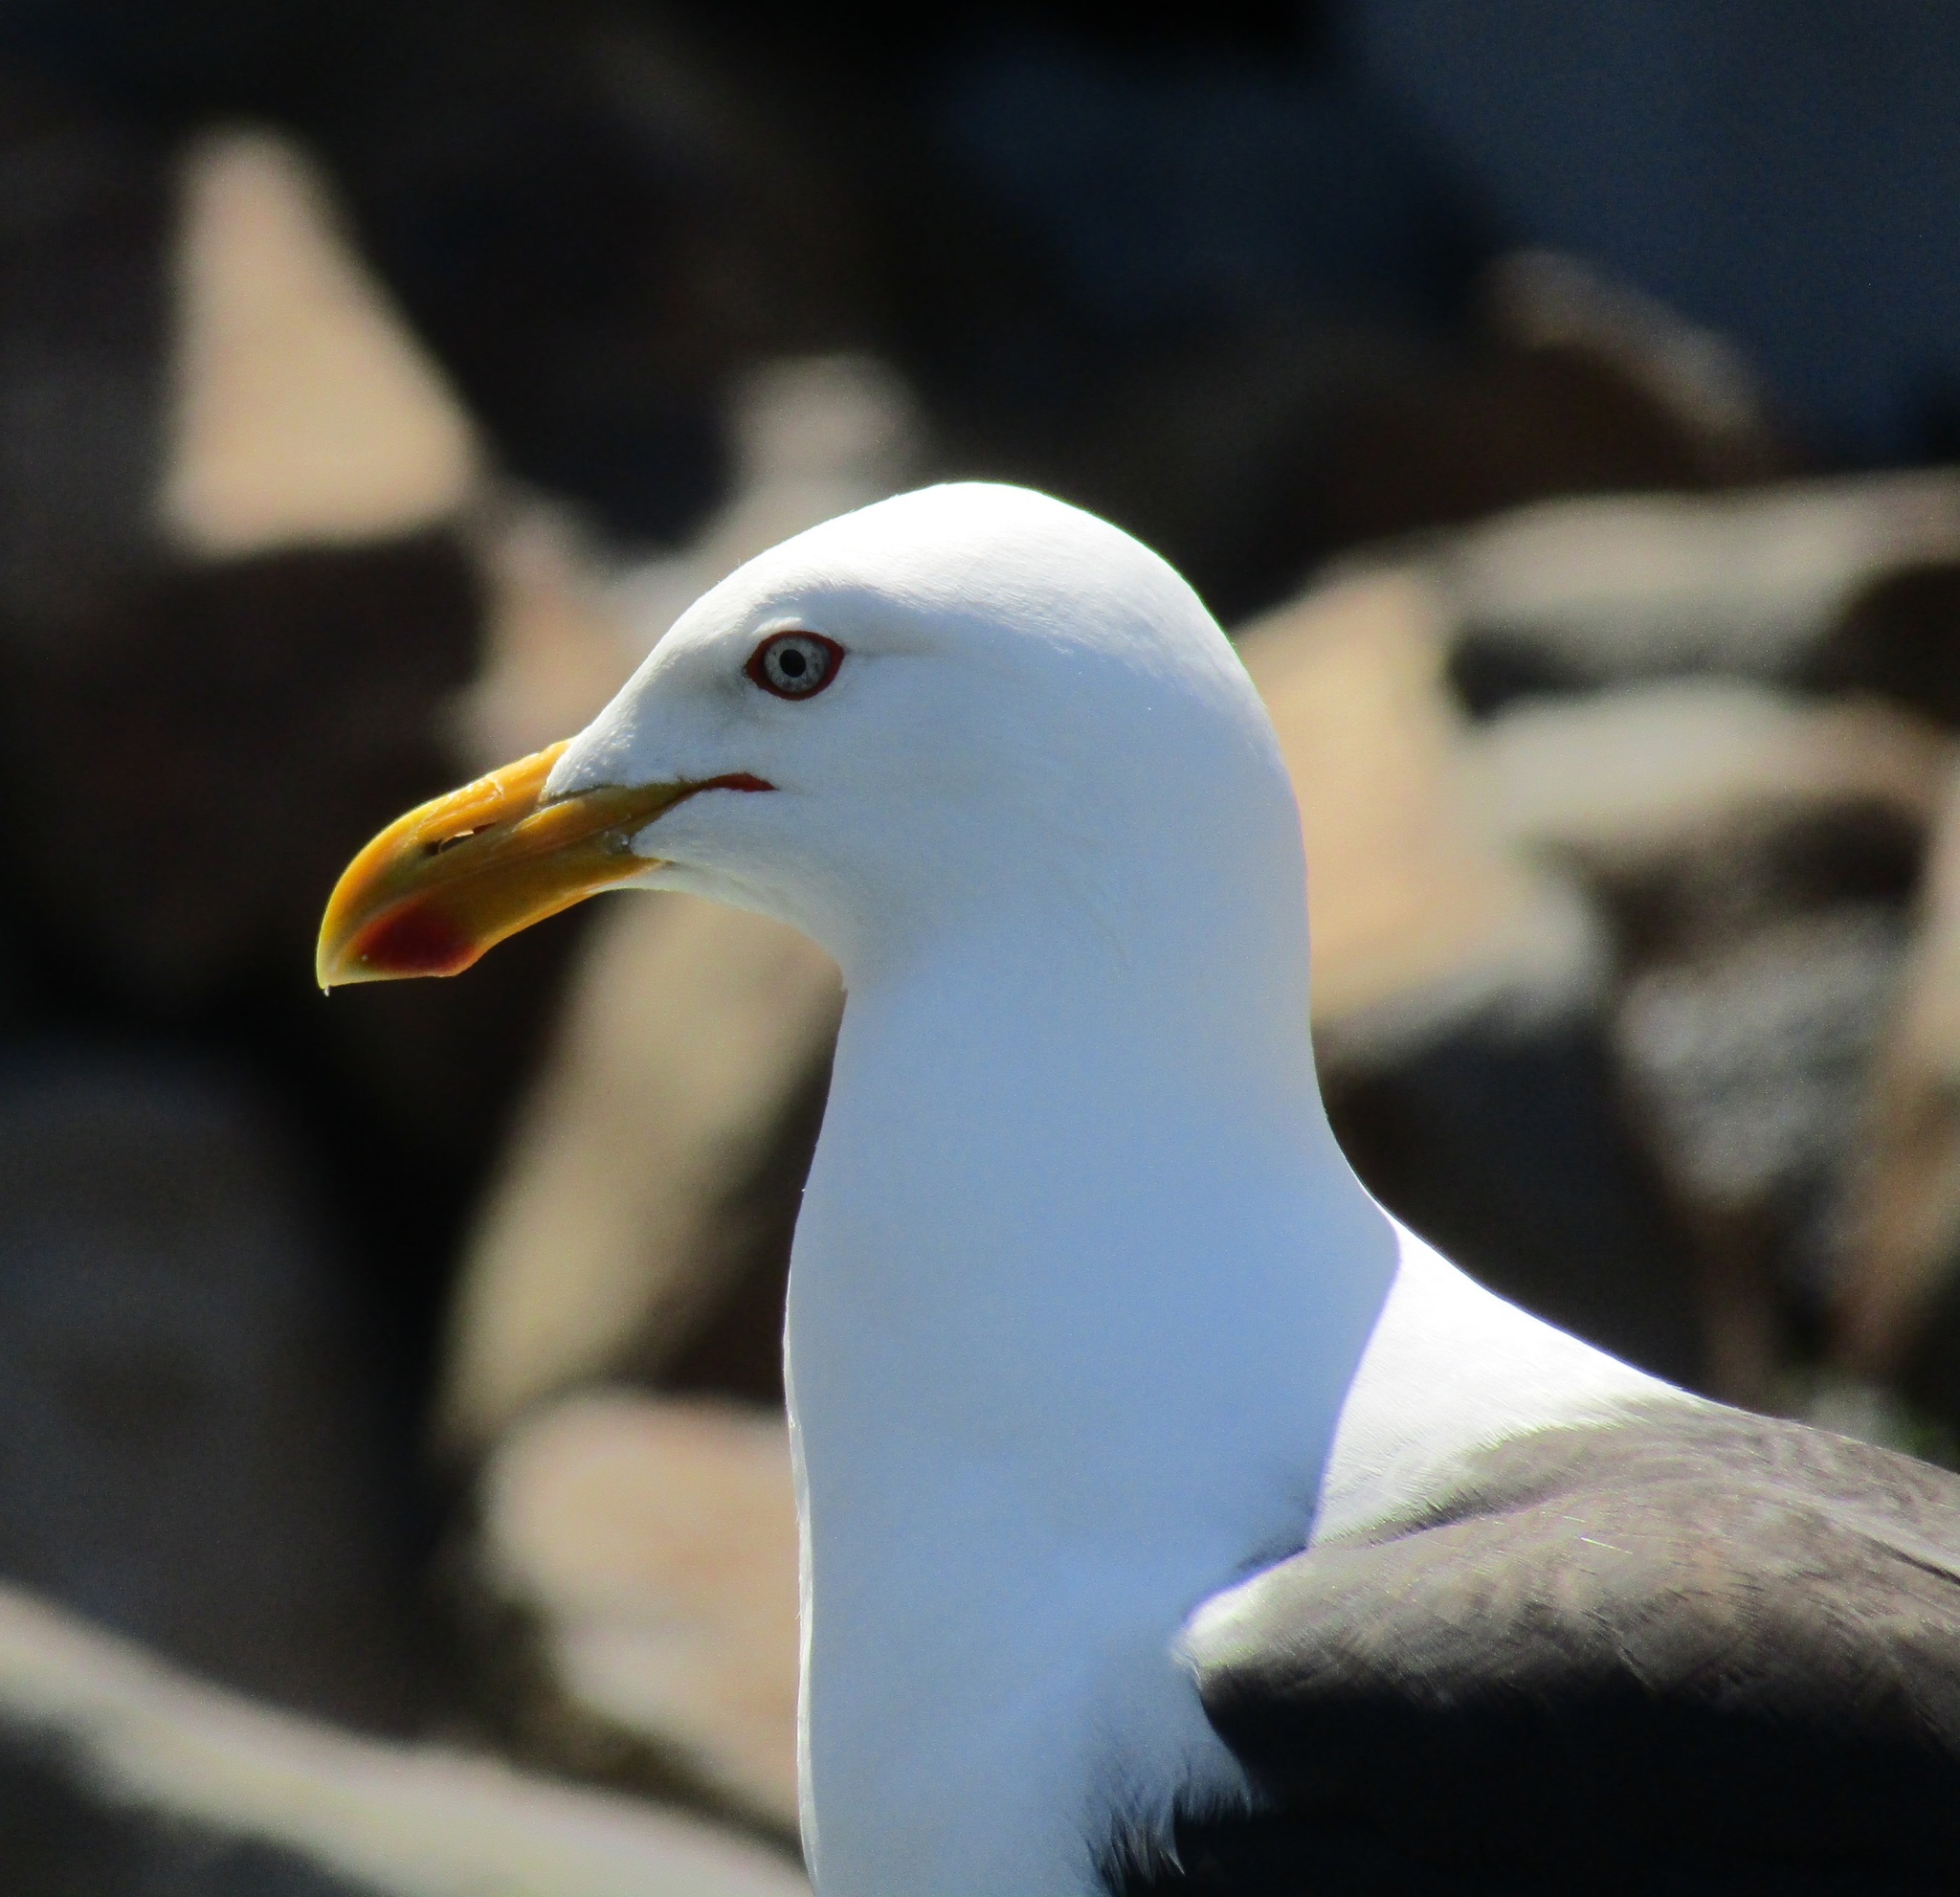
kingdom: Animalia
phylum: Chordata
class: Aves
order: Charadriiformes
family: Laridae
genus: Larus
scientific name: Larus dominicanus
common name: Kelp gull
